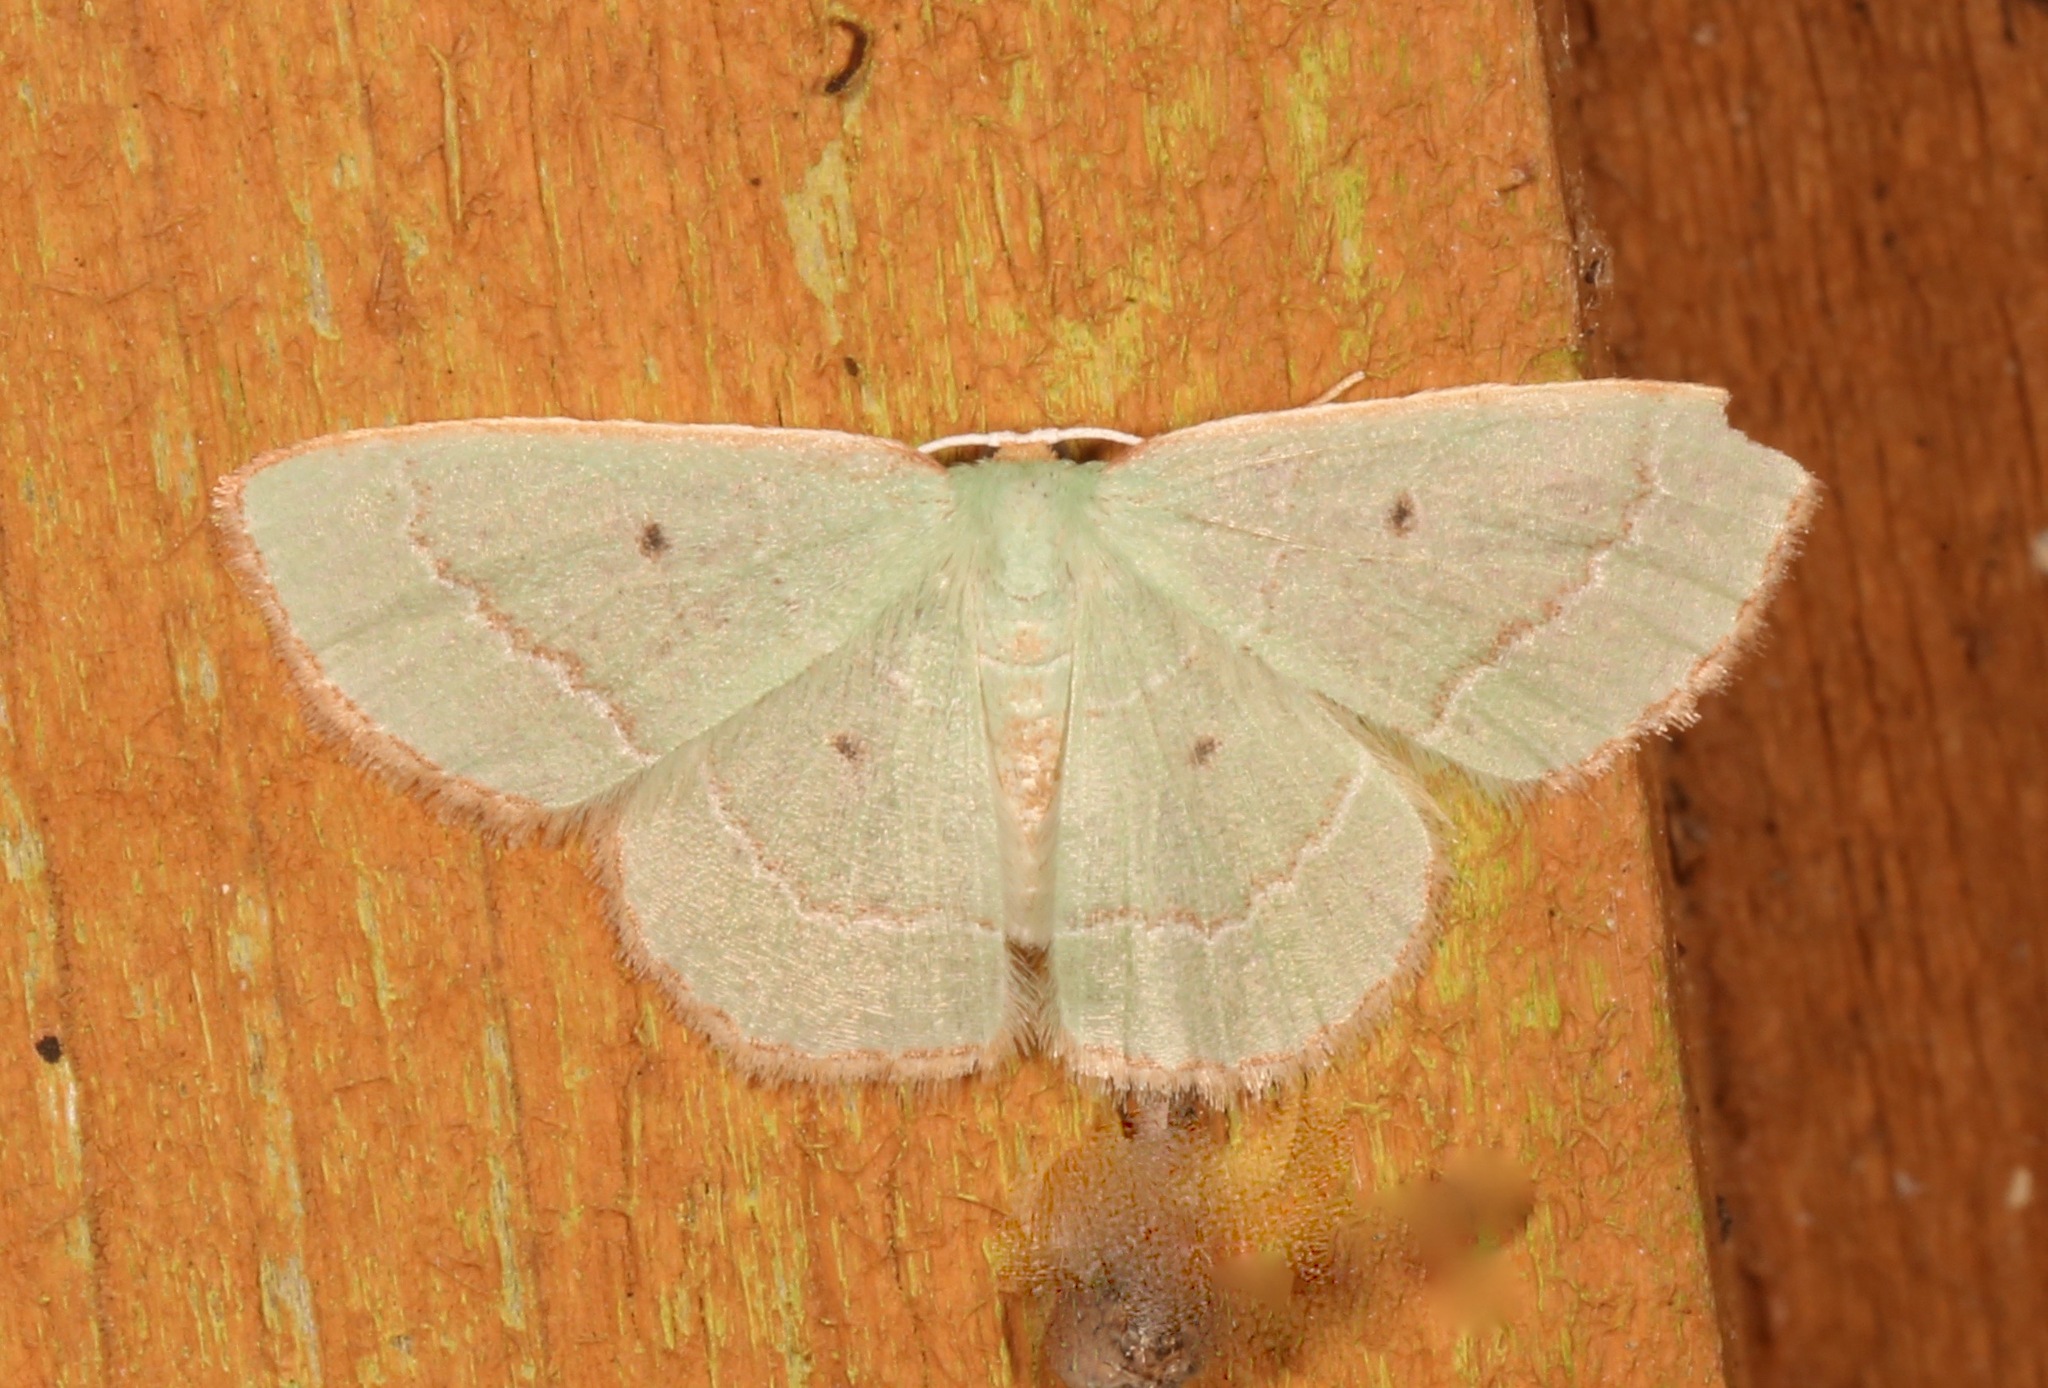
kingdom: Animalia
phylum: Arthropoda
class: Insecta
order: Lepidoptera
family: Geometridae
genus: Nemoria
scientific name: Nemoria elfa
